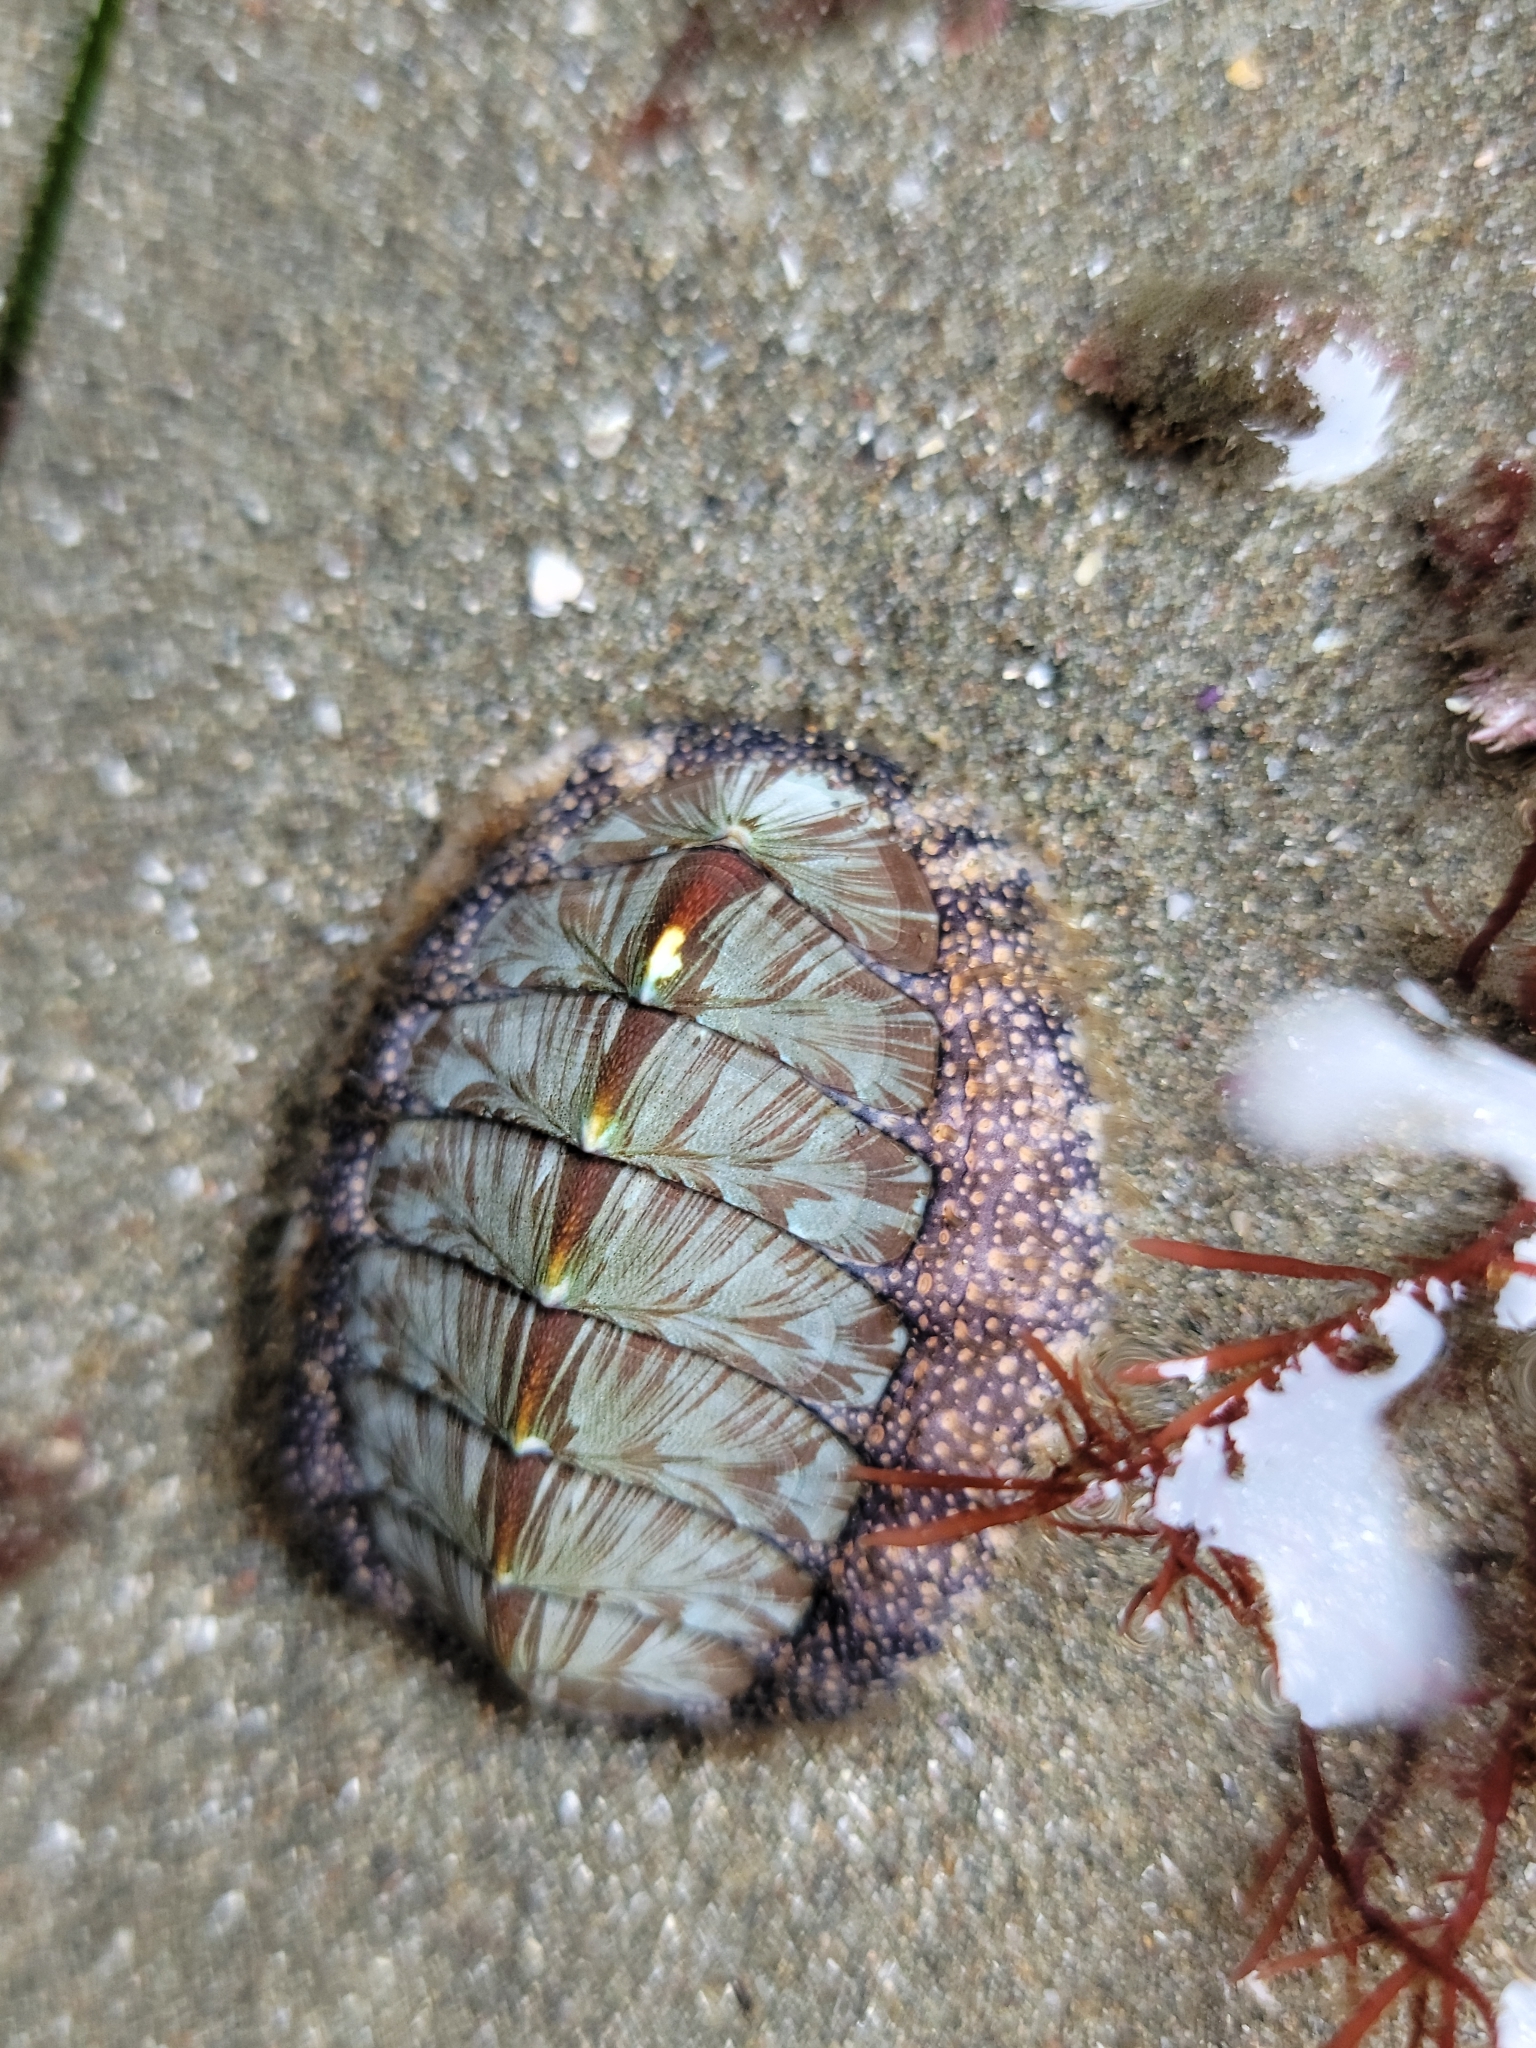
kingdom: Animalia
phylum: Mollusca
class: Polyplacophora
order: Chitonida
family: Mopaliidae
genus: Mopalia
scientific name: Mopalia lignosa
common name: Woody chiton
